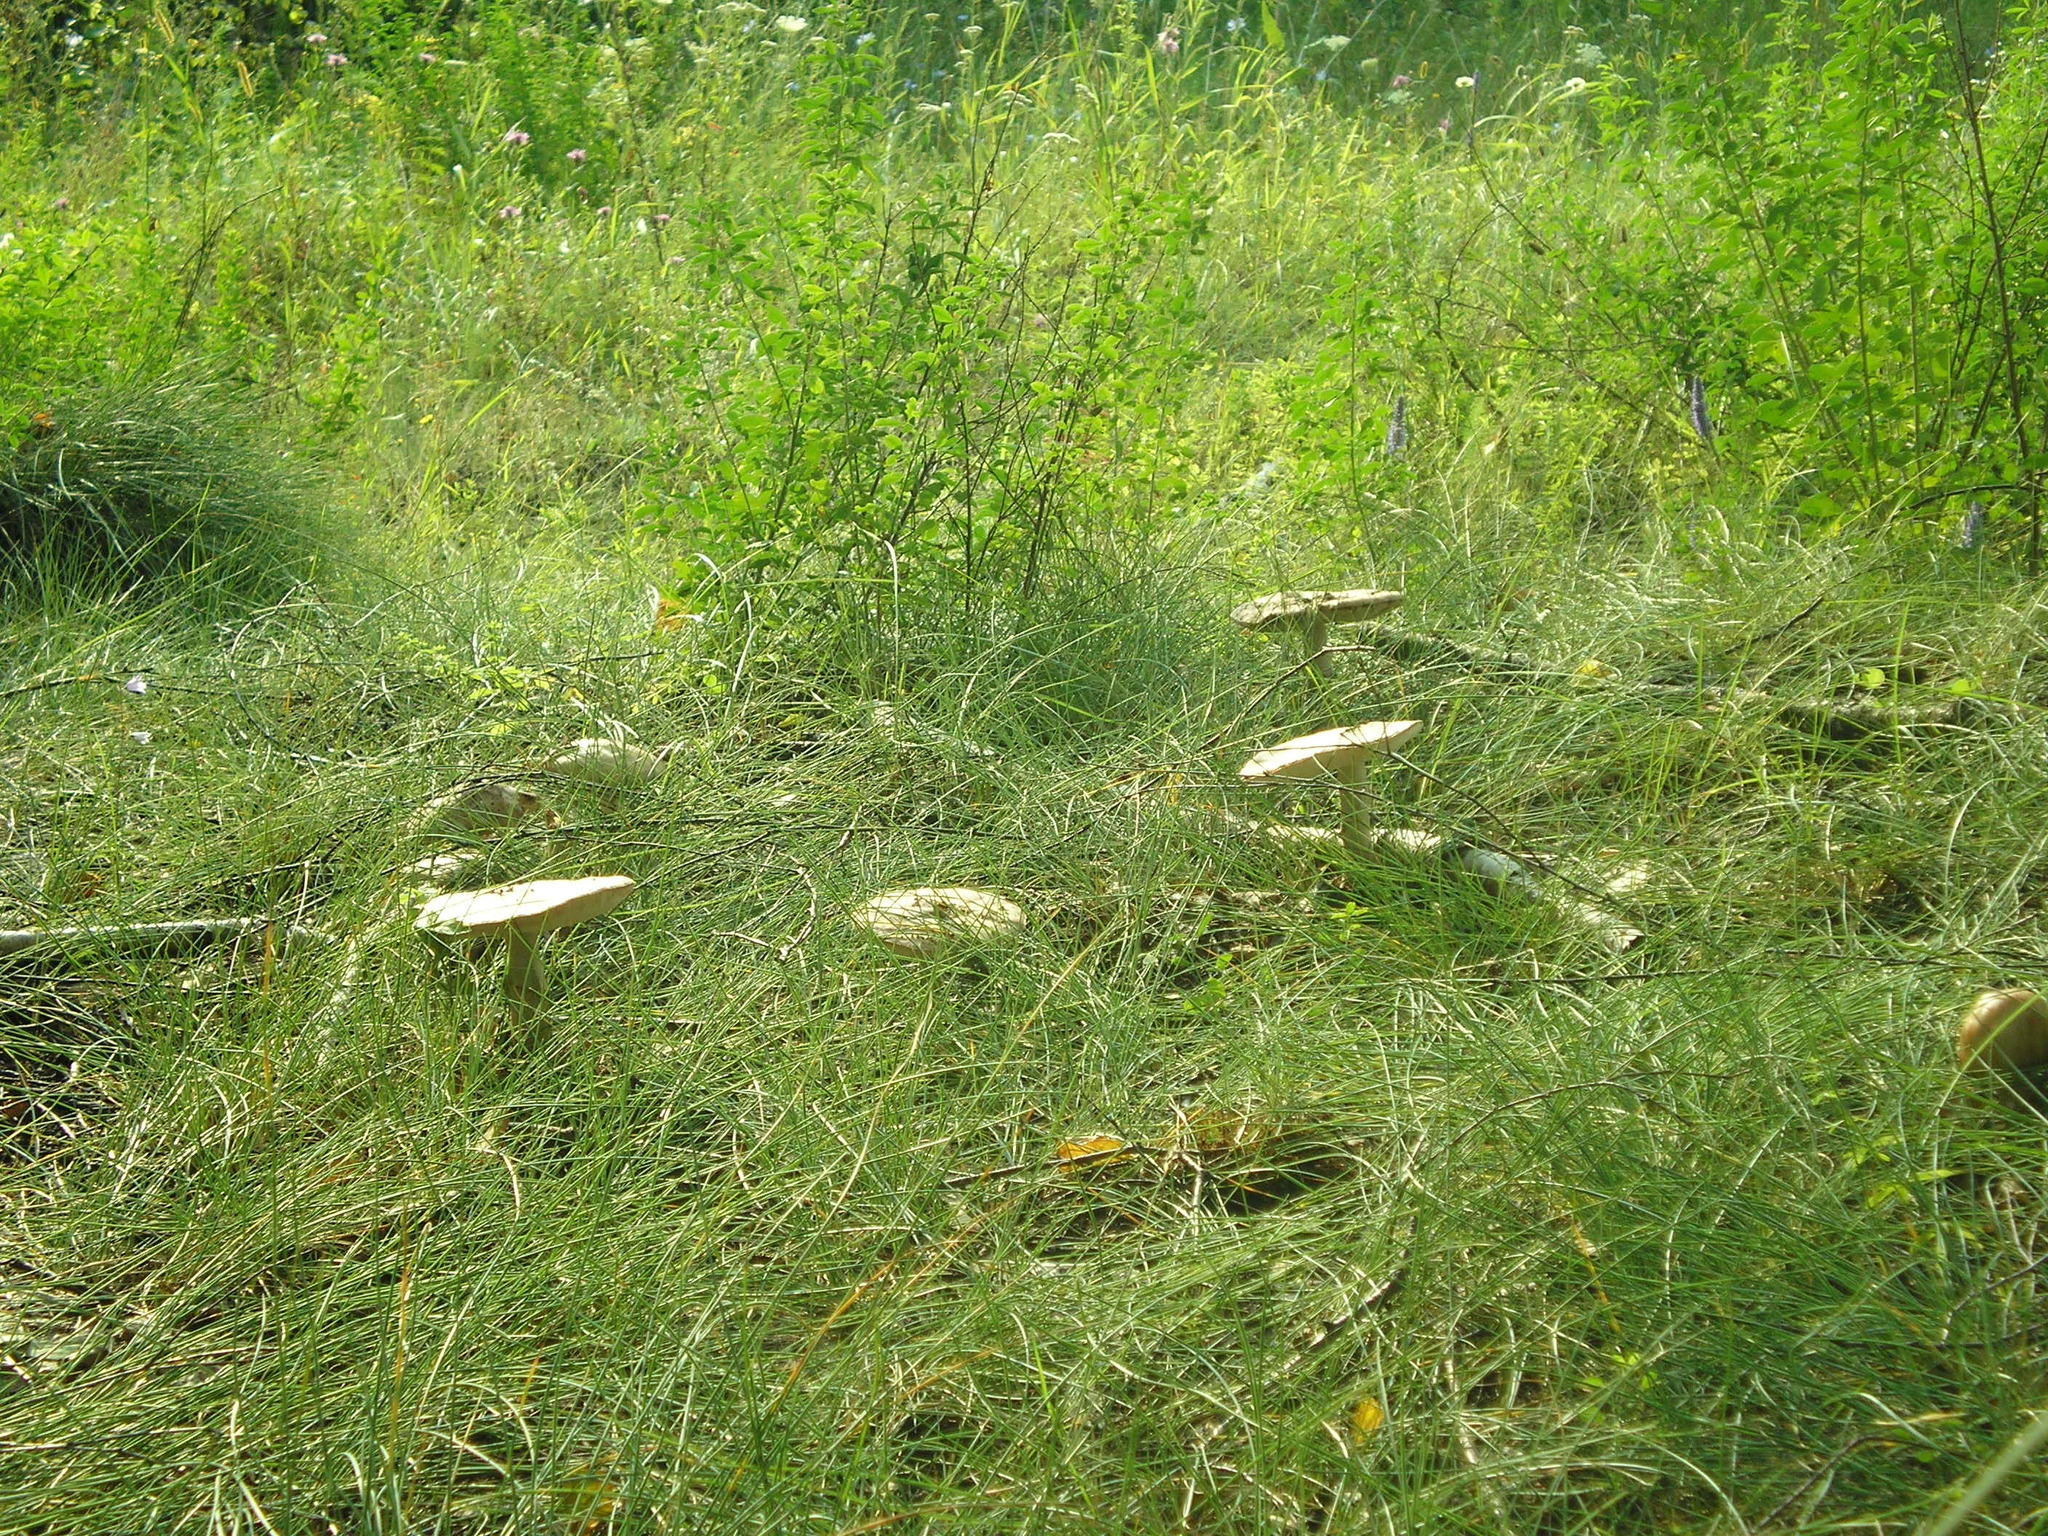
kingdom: Fungi
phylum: Basidiomycota
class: Agaricomycetes
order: Agaricales
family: Amanitaceae
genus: Amanita
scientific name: Amanita rubescens
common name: Blusher
